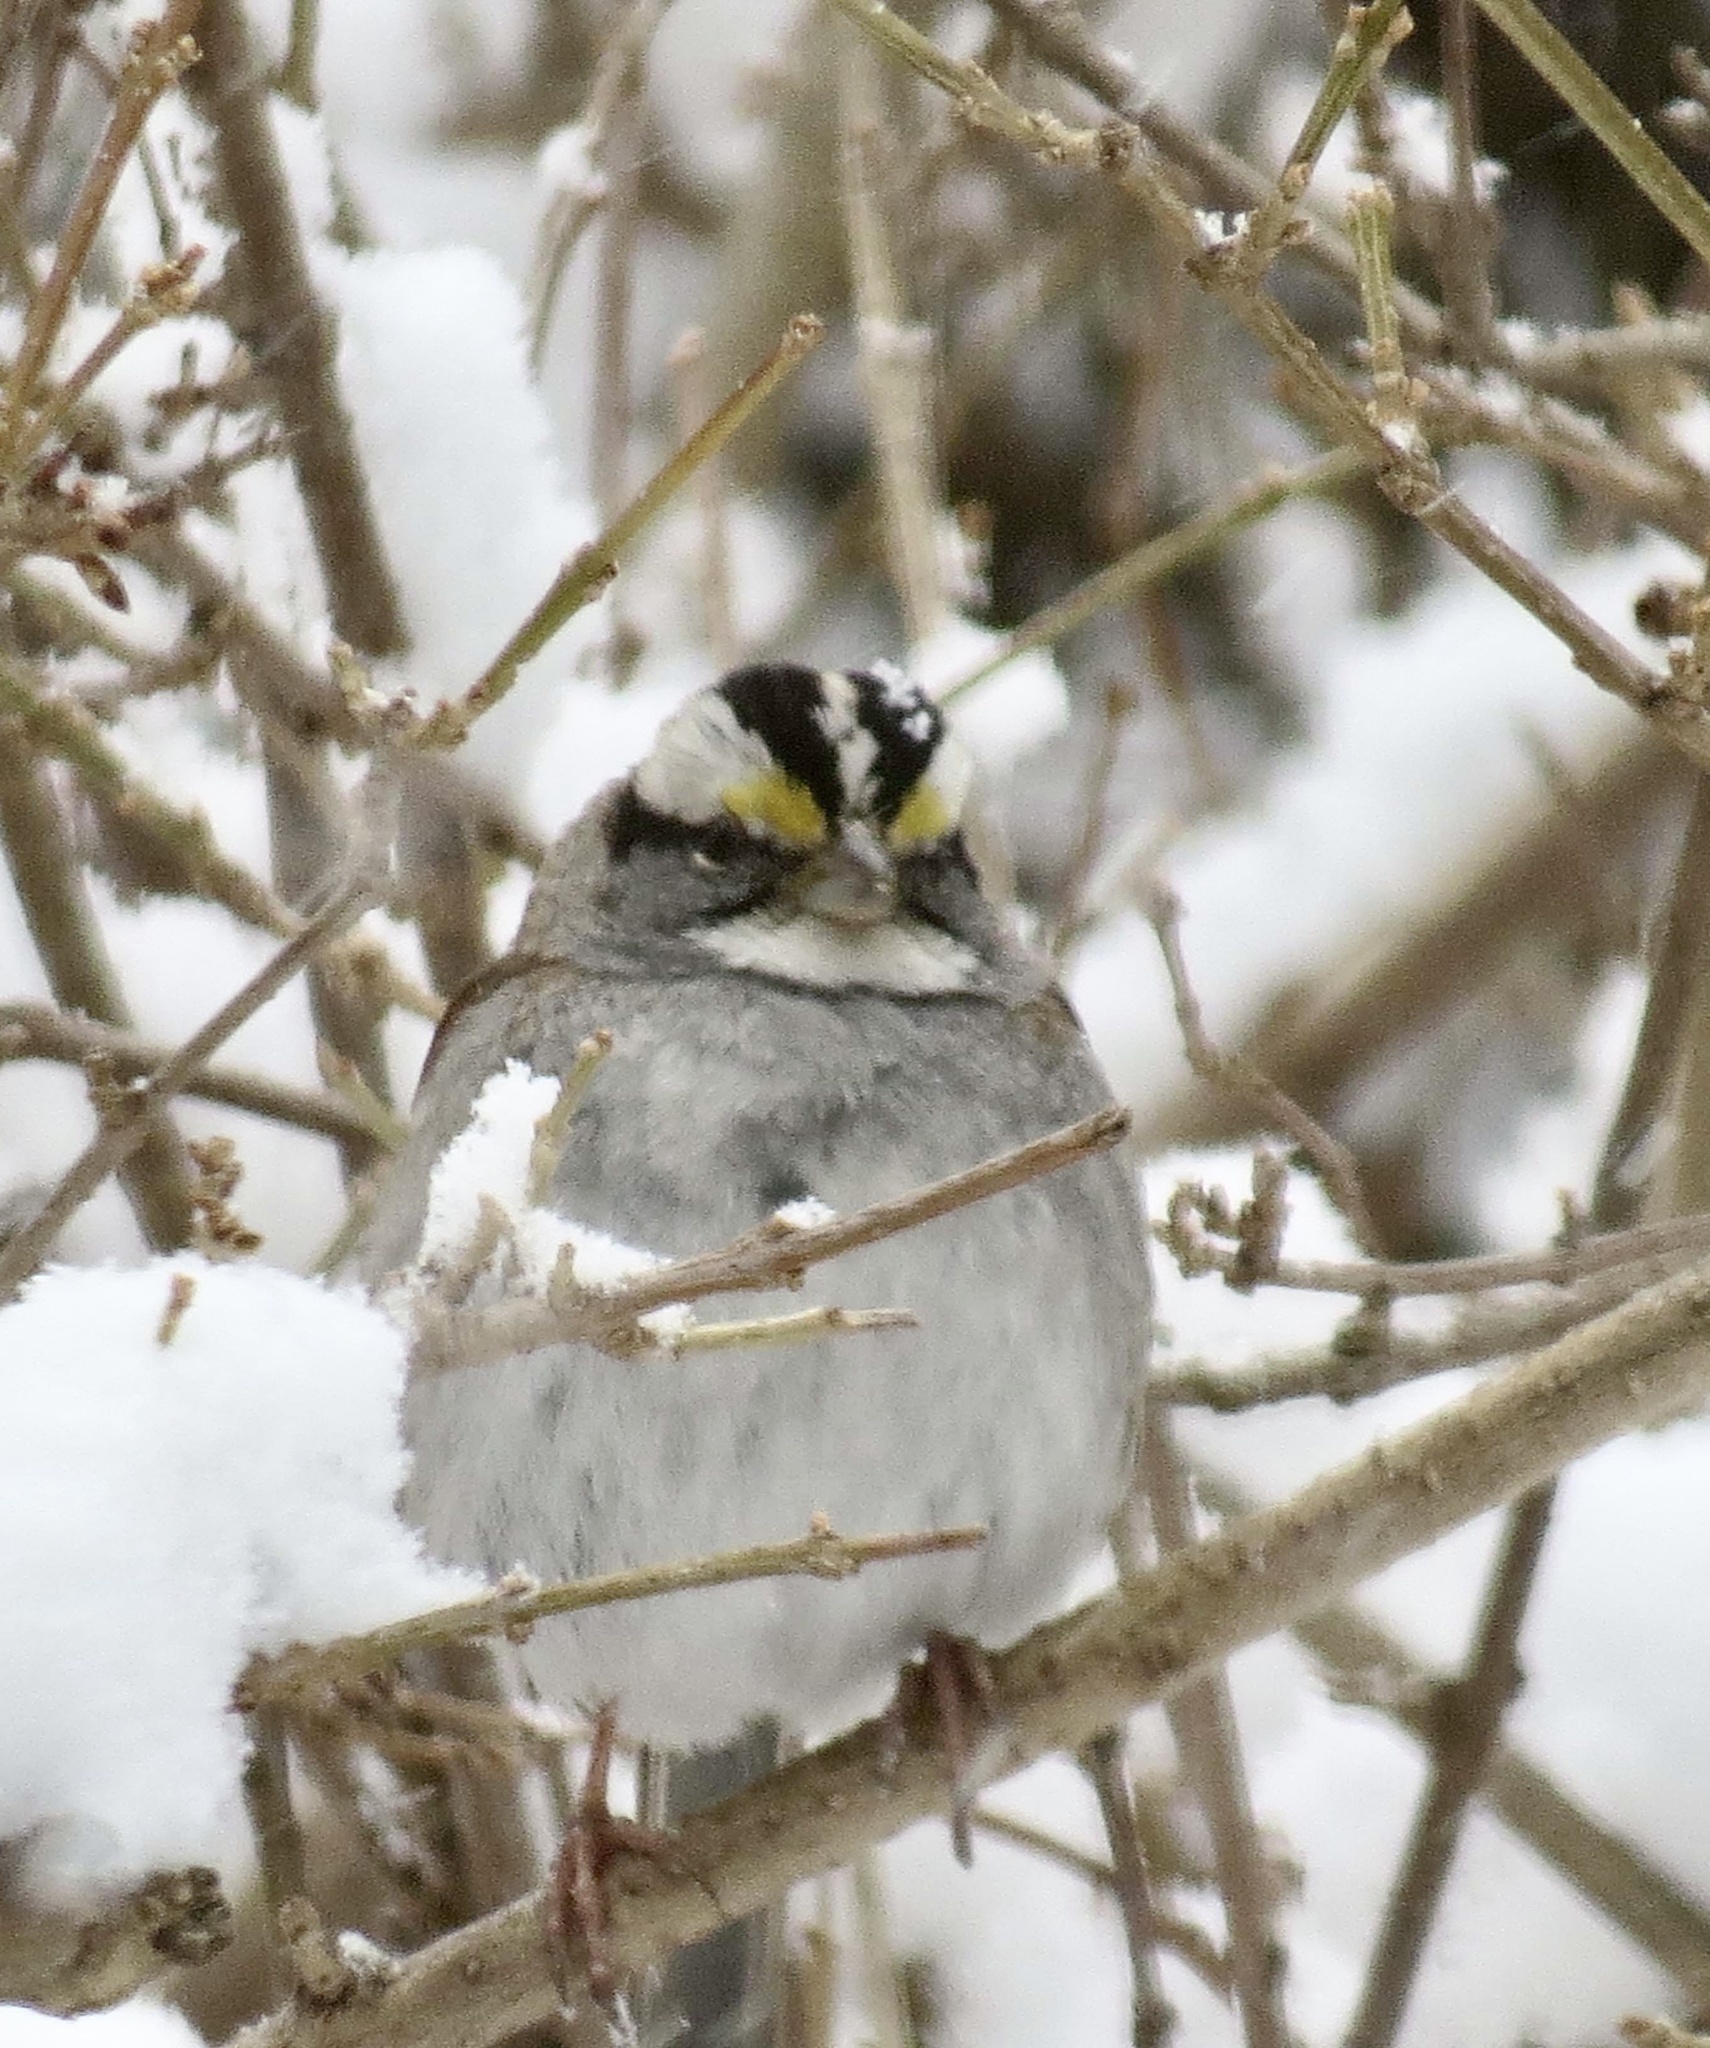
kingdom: Animalia
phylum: Chordata
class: Aves
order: Passeriformes
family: Passerellidae
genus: Zonotrichia
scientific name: Zonotrichia albicollis
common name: White-throated sparrow
